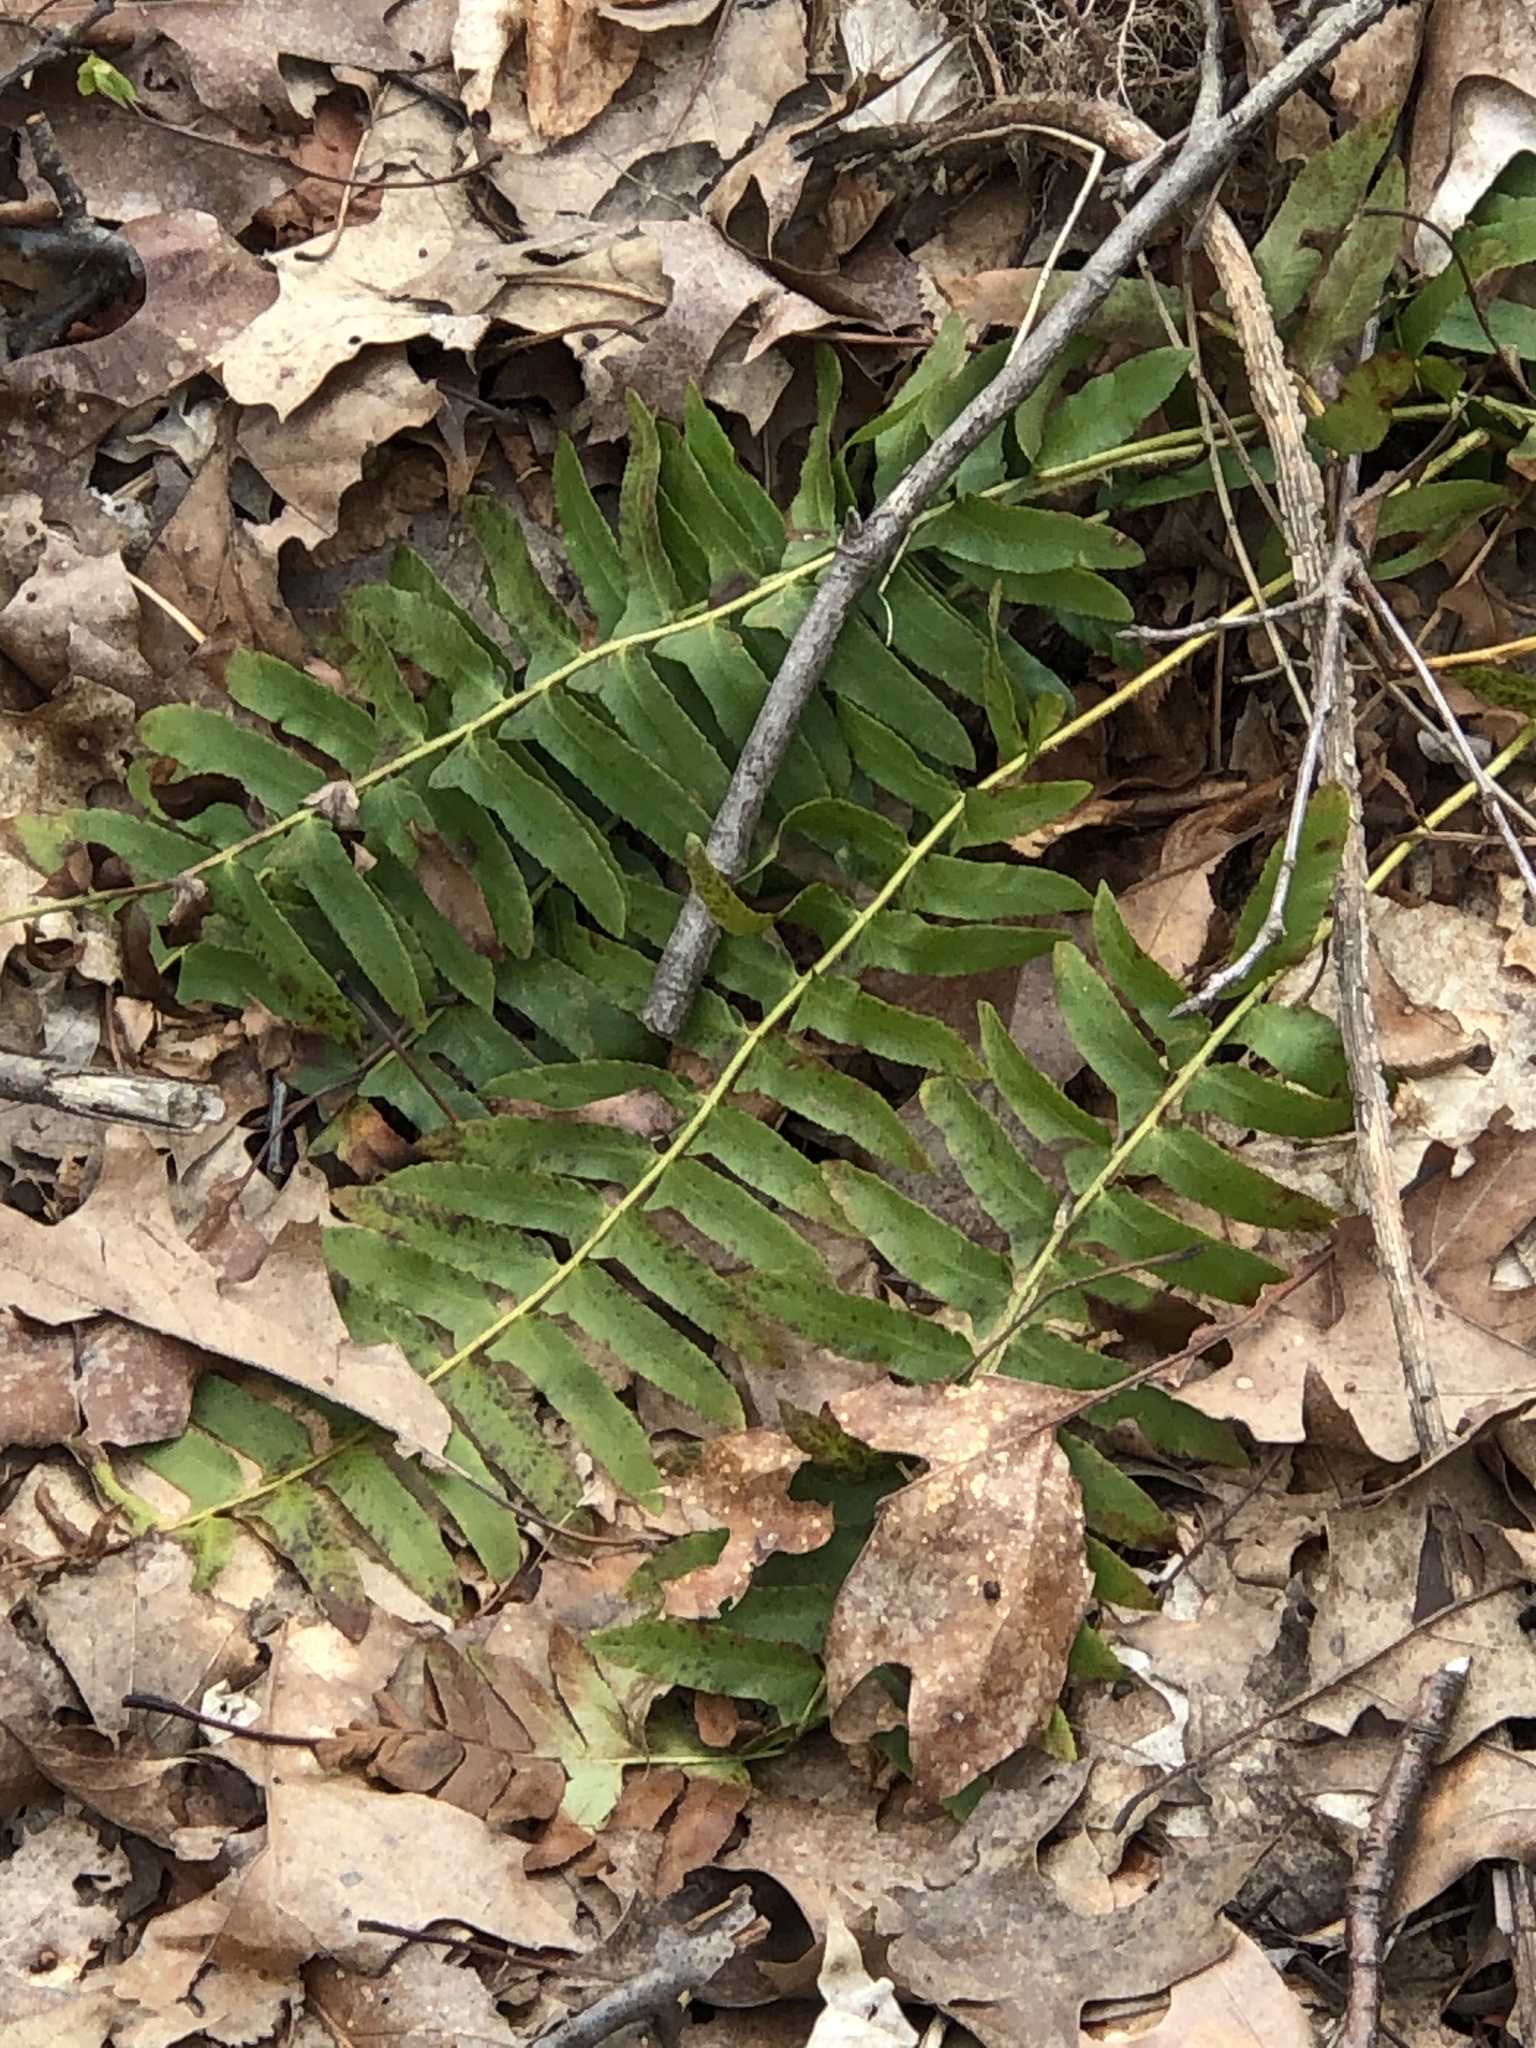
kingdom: Plantae
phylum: Tracheophyta
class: Polypodiopsida
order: Polypodiales
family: Dryopteridaceae
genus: Polystichum
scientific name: Polystichum acrostichoides
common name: Christmas fern
